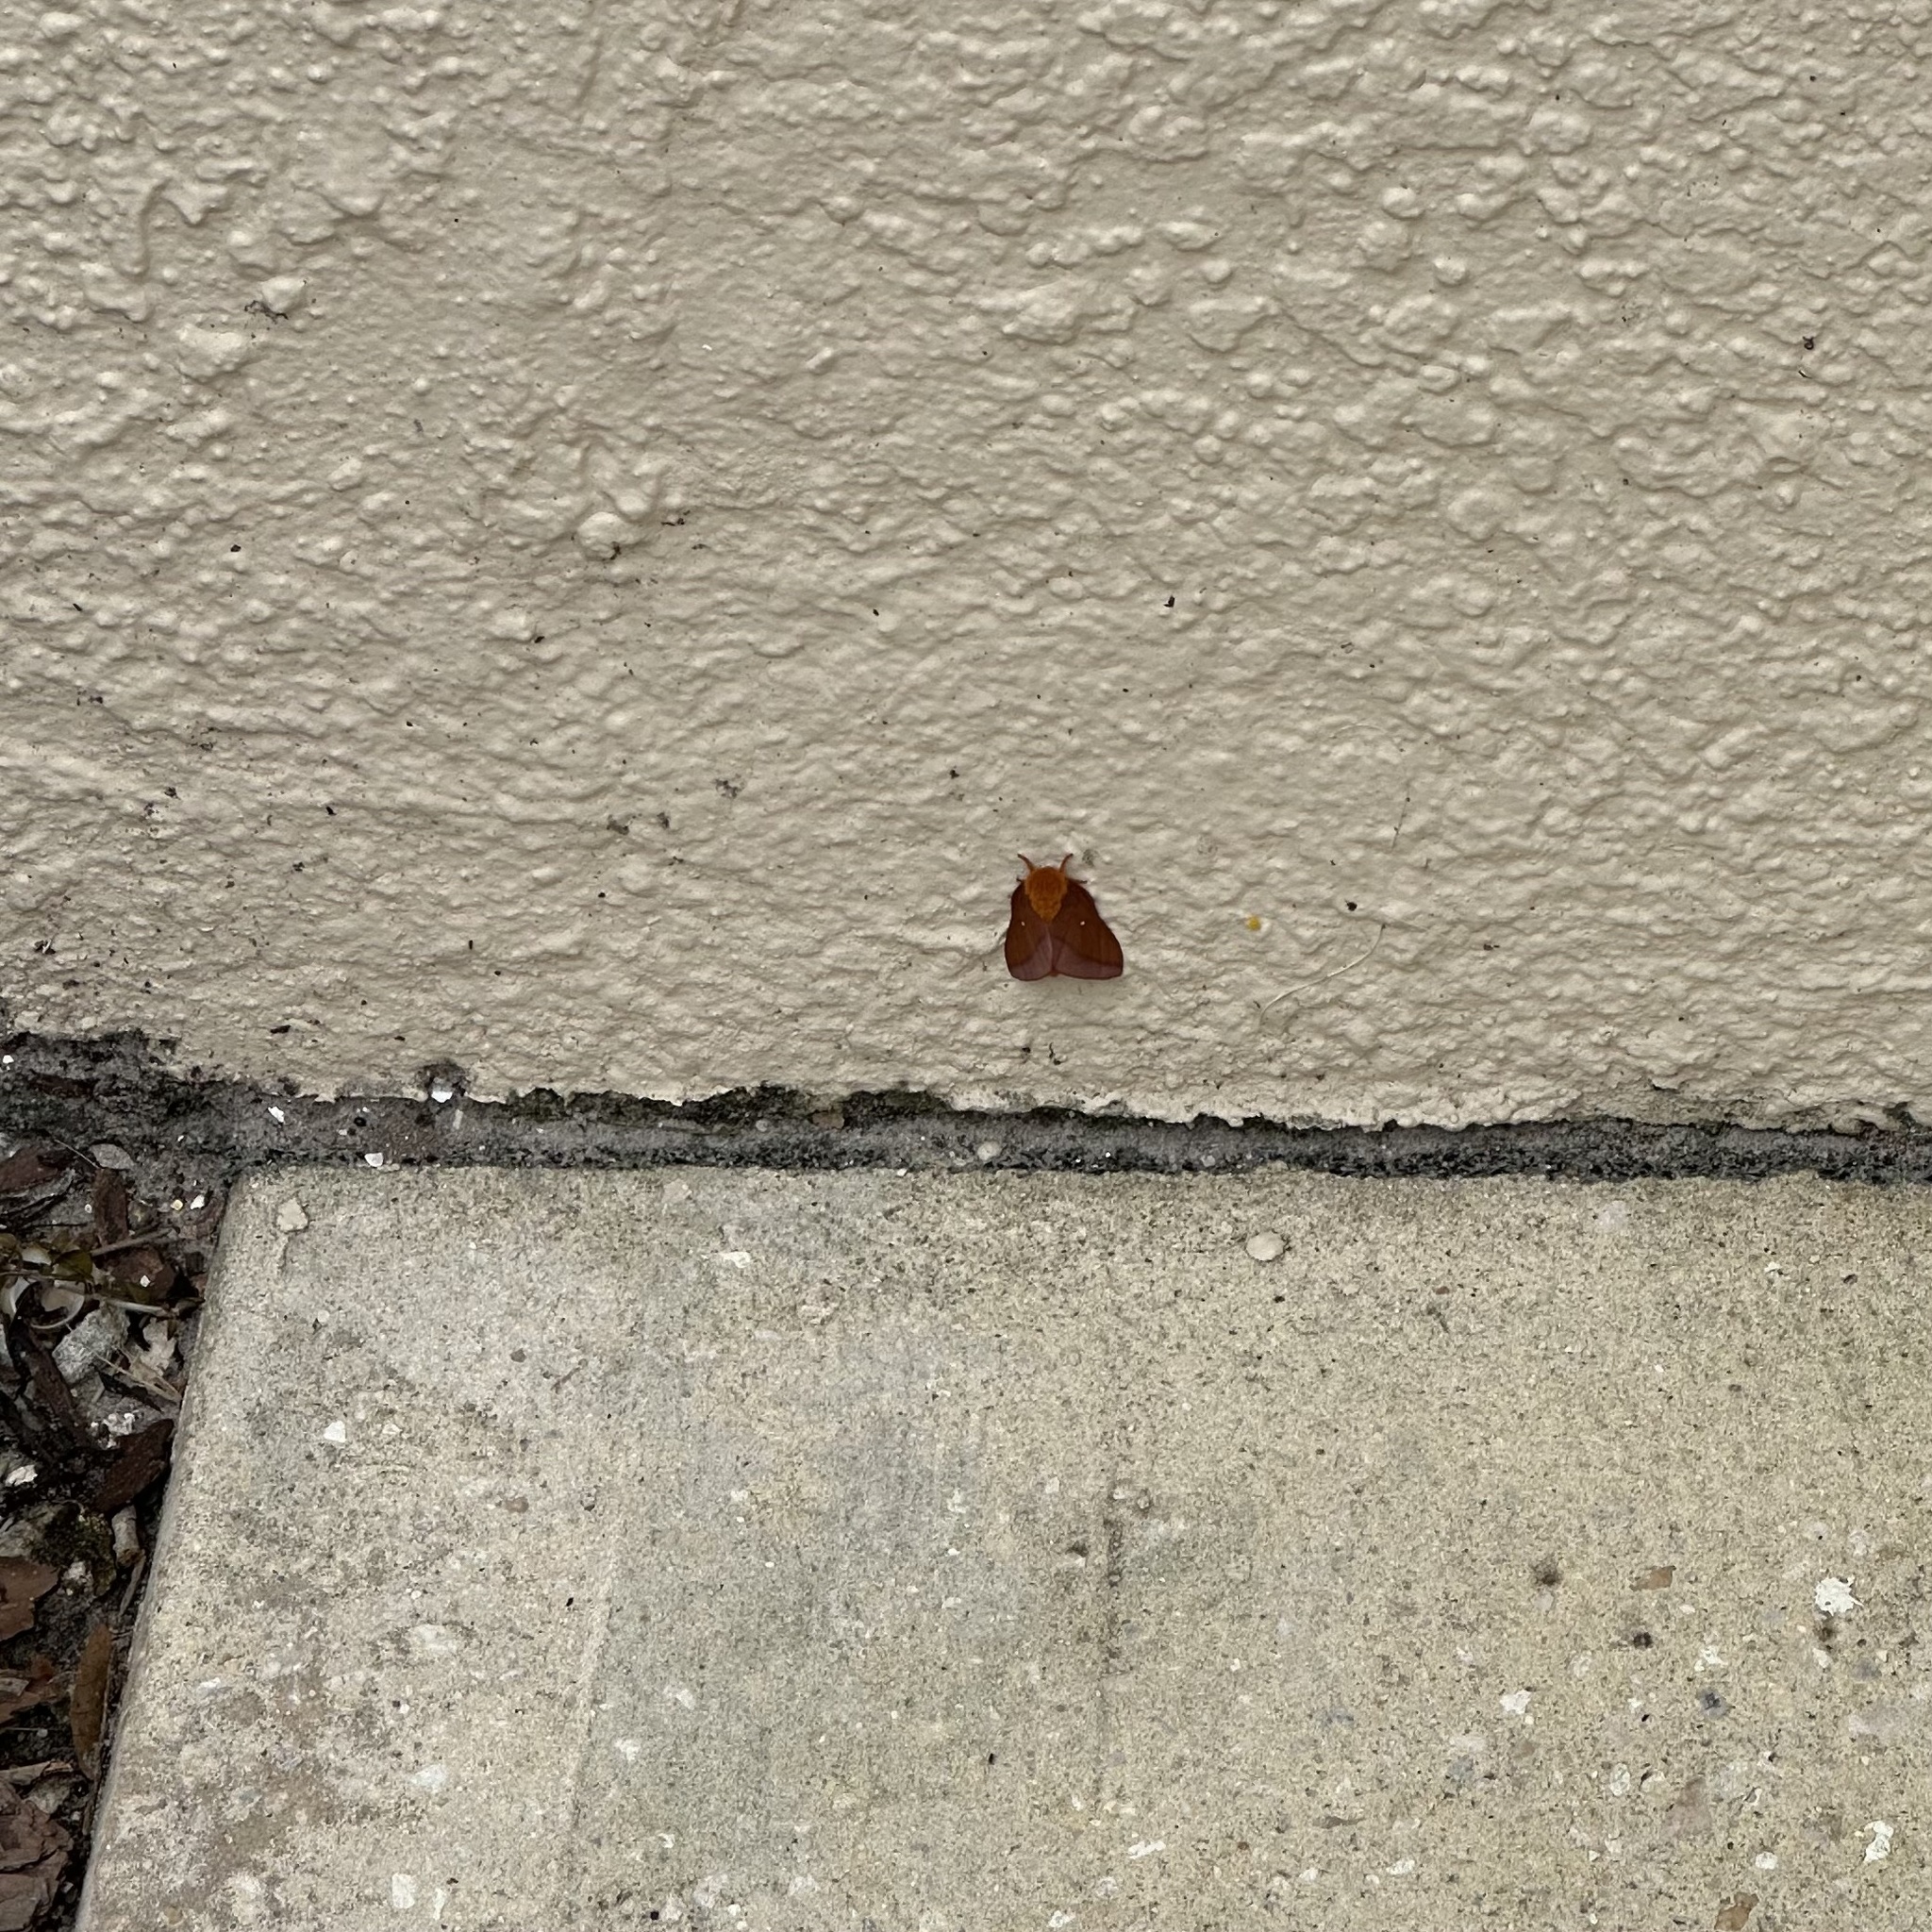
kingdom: Animalia
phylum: Arthropoda
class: Insecta
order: Lepidoptera
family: Saturniidae
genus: Anisota
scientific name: Anisota virginiensis
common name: Pink striped oakworm moth
